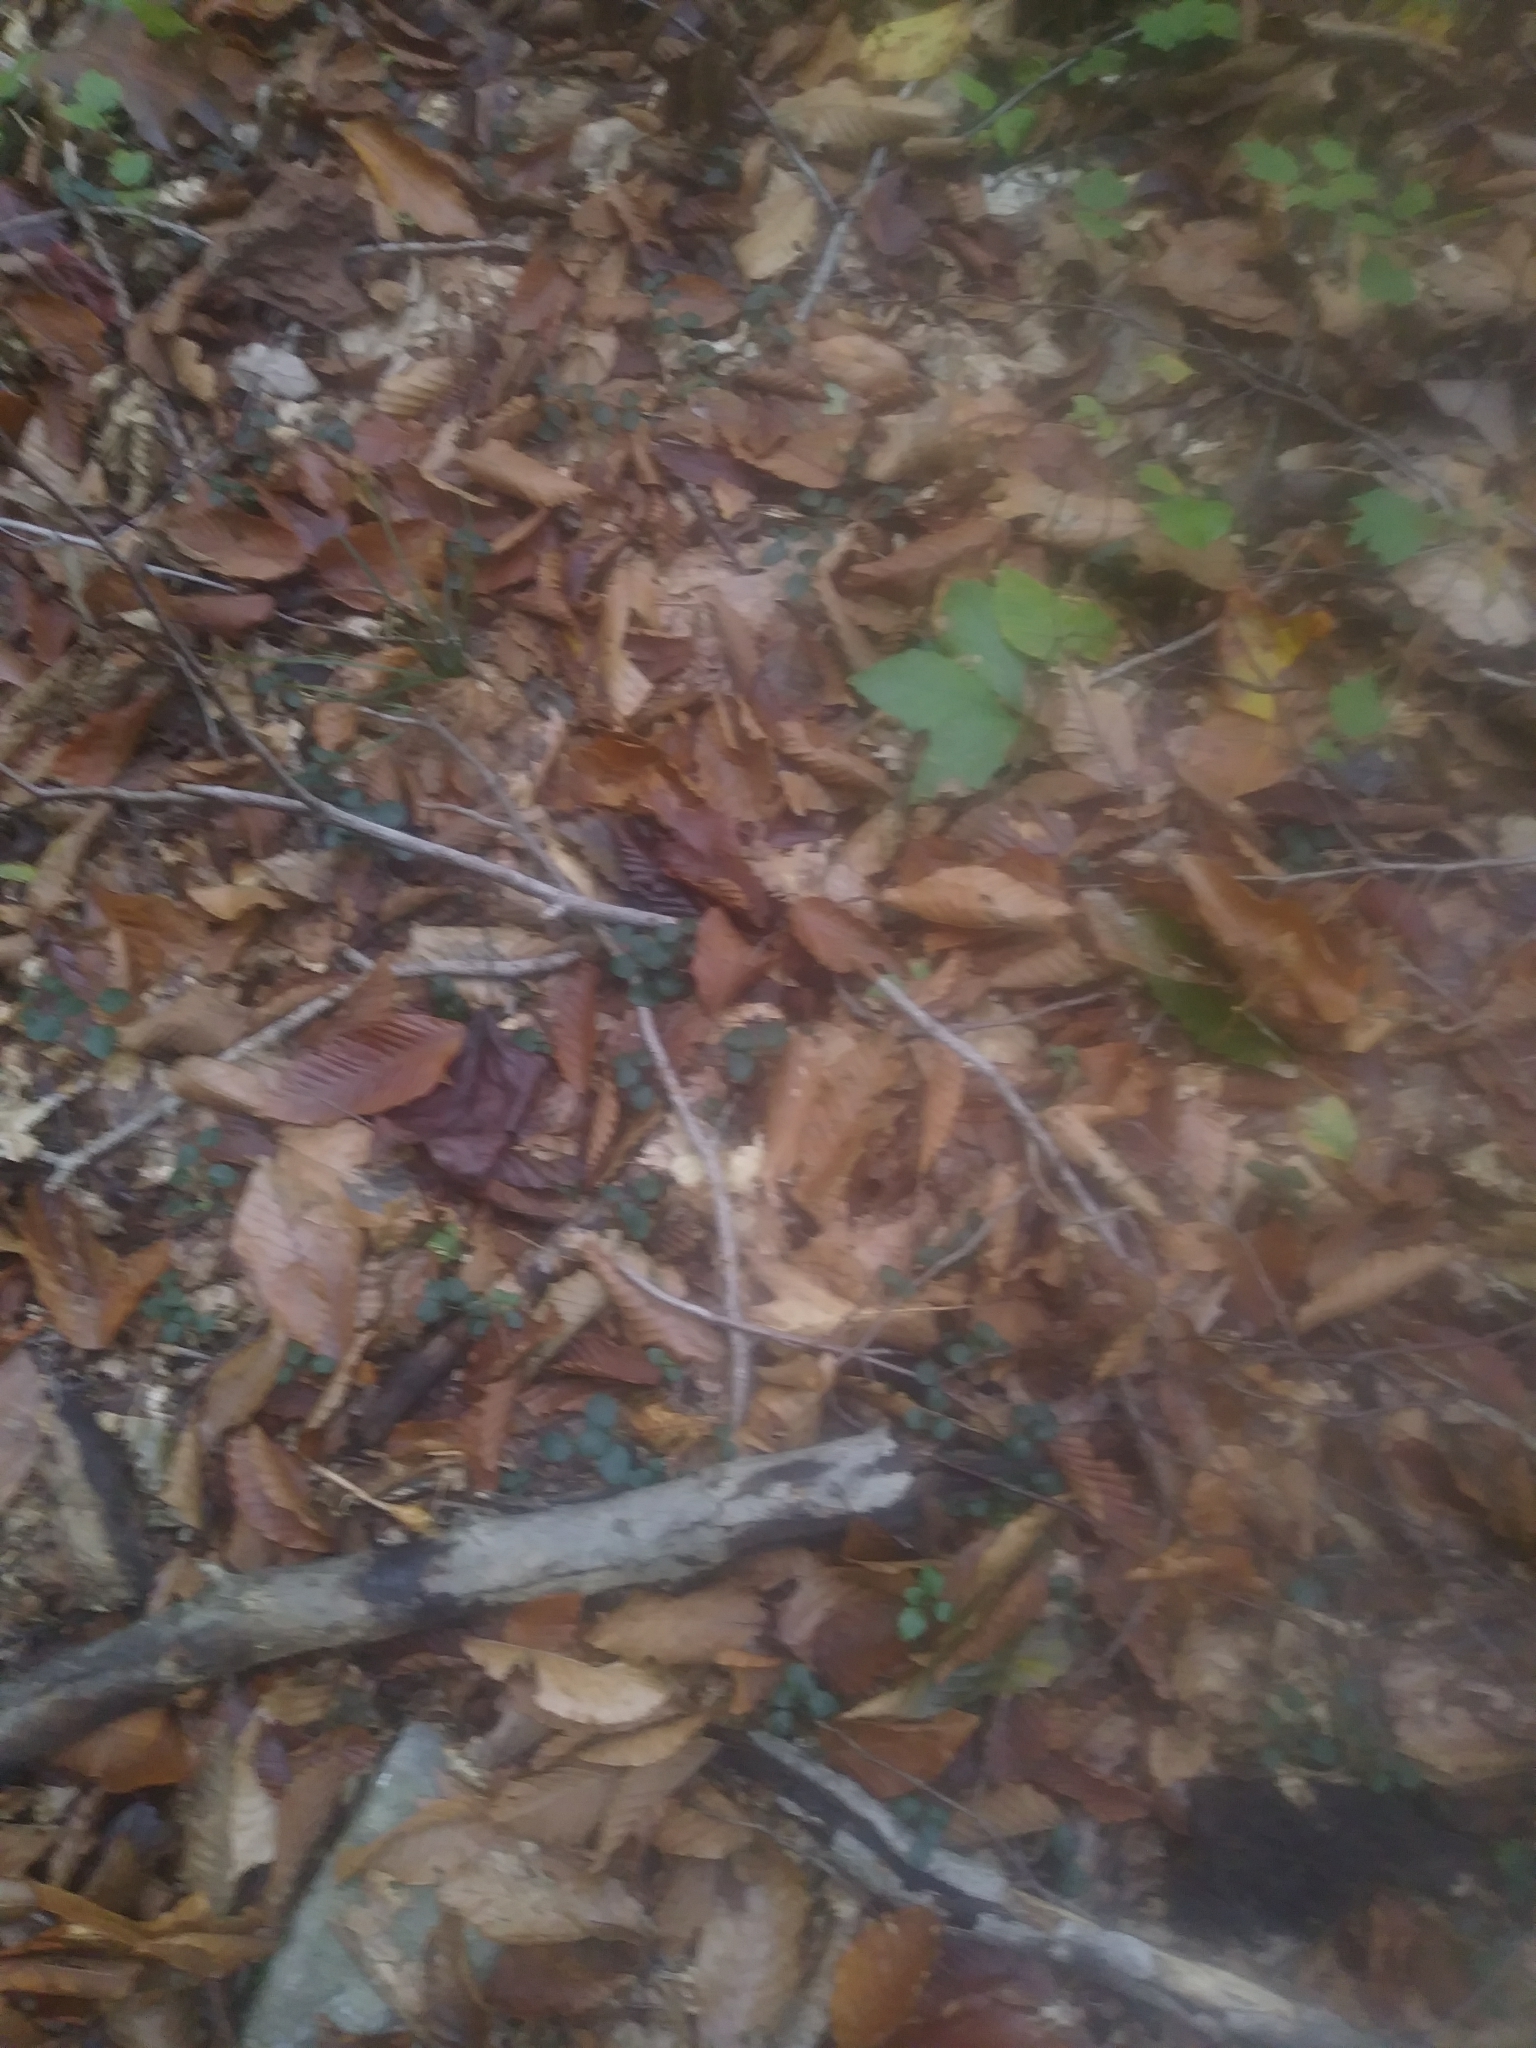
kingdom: Plantae
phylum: Tracheophyta
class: Magnoliopsida
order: Gentianales
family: Rubiaceae
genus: Mitchella
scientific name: Mitchella repens
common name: Partridge-berry
